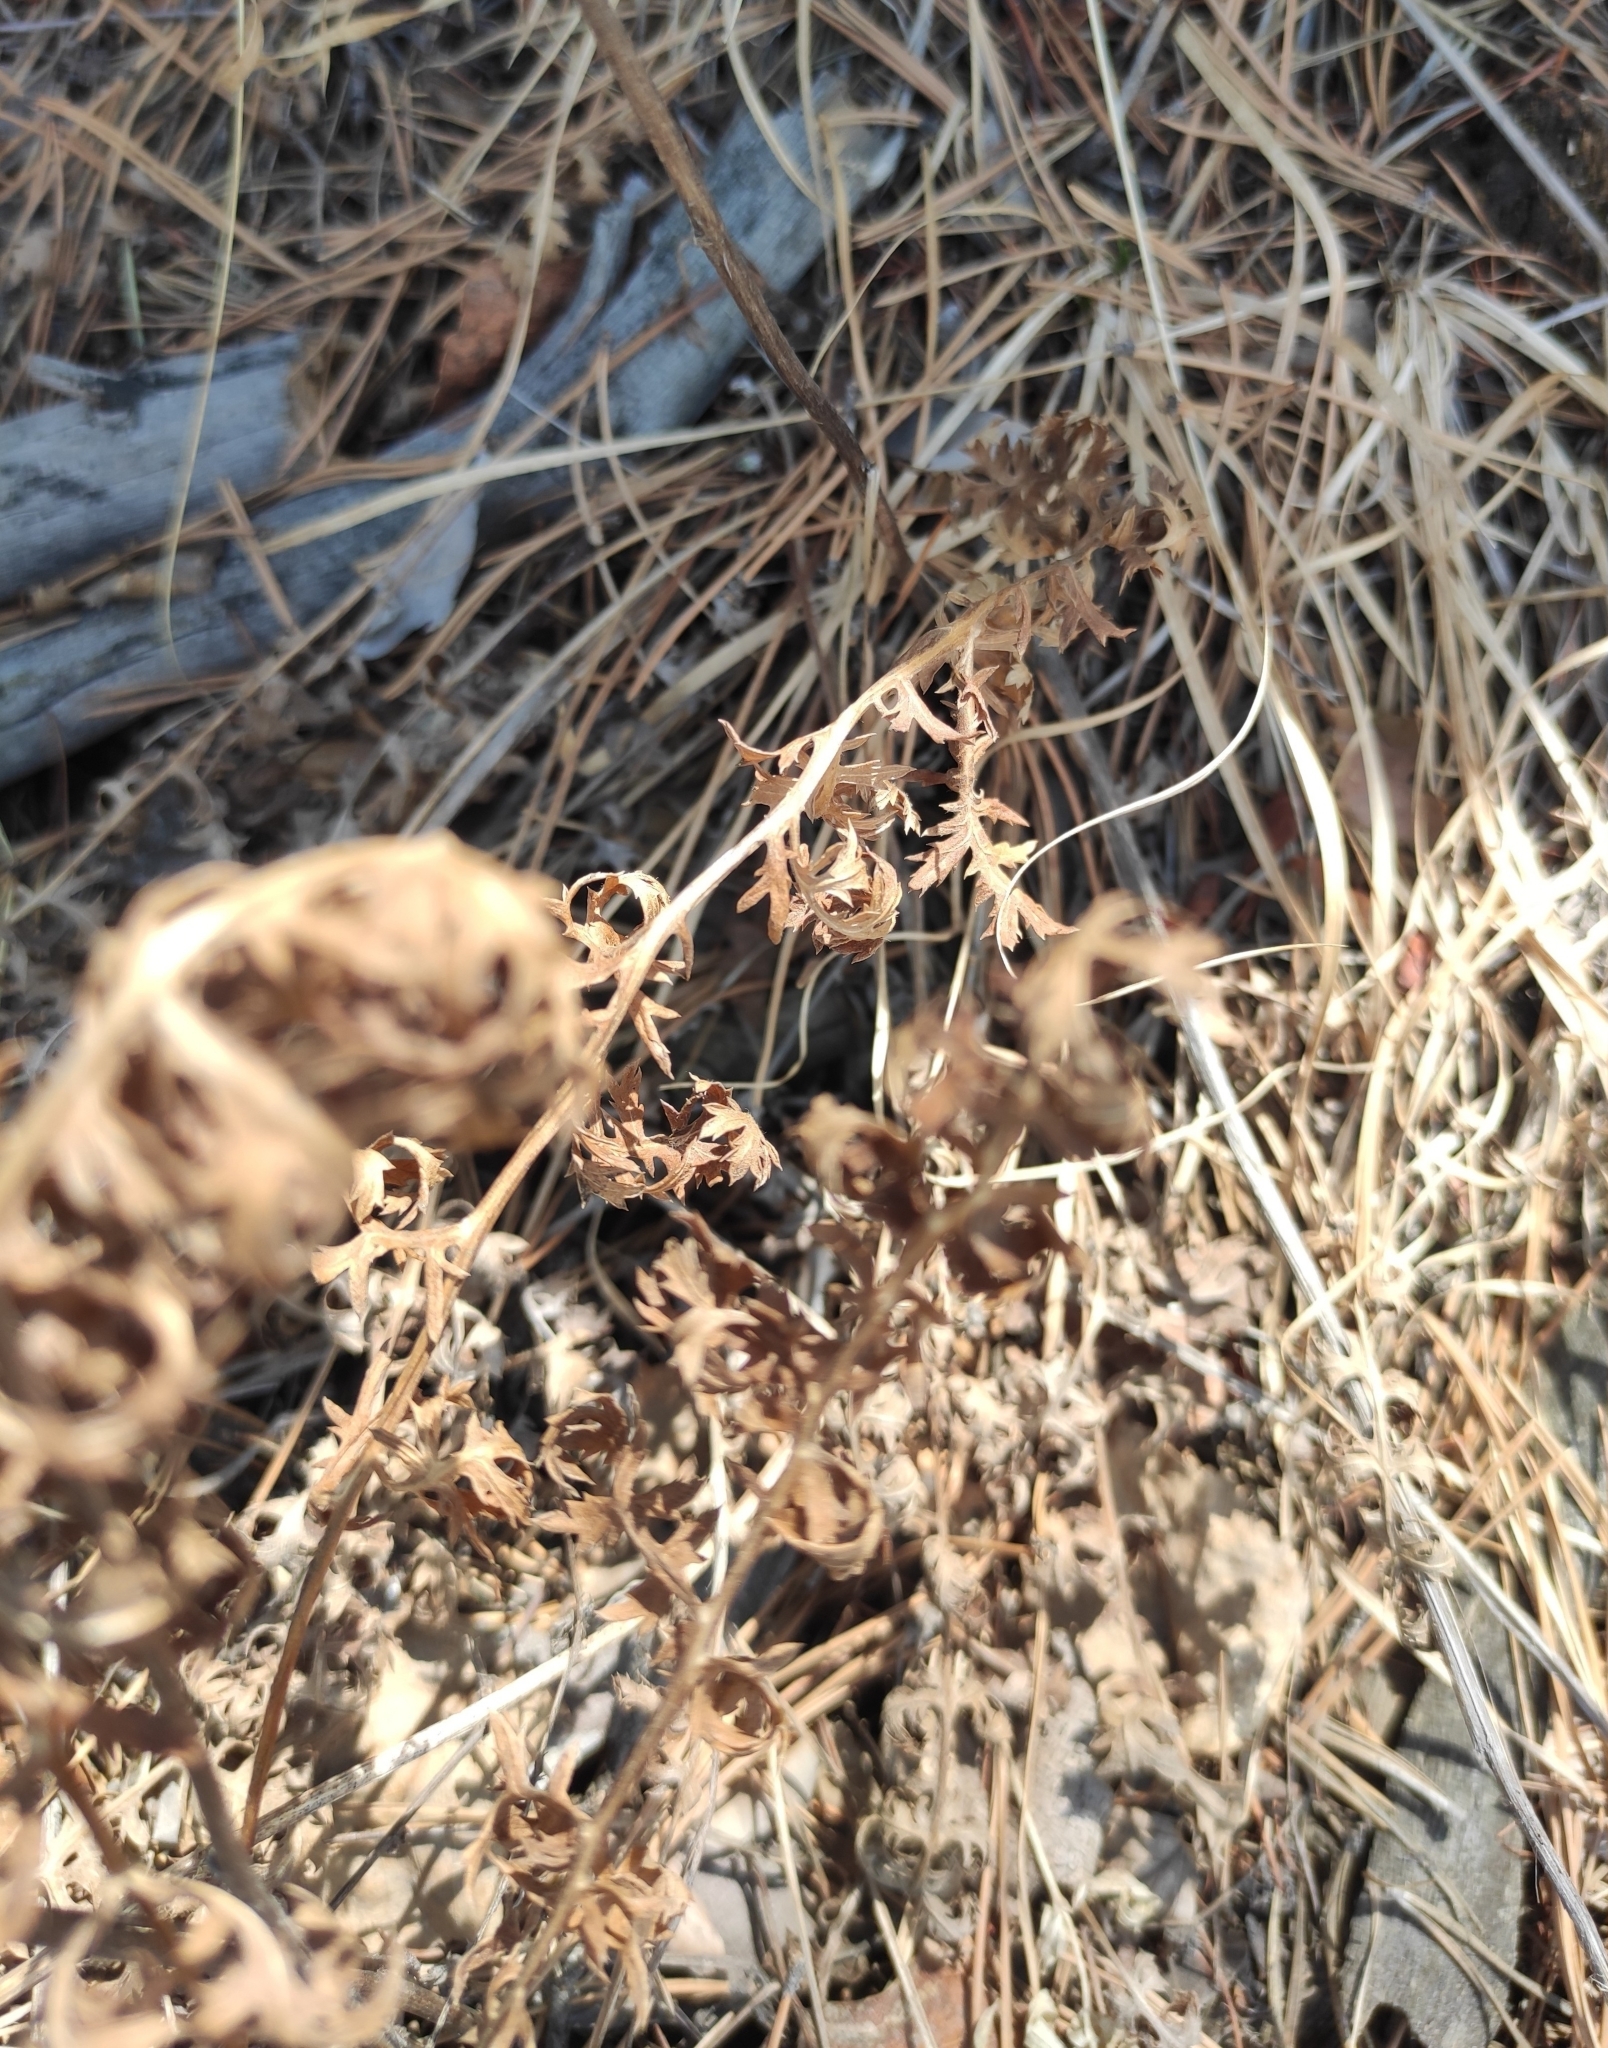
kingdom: Plantae
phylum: Tracheophyta
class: Magnoliopsida
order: Asterales
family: Asteraceae
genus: Artemisia
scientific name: Artemisia tanacetifolia
